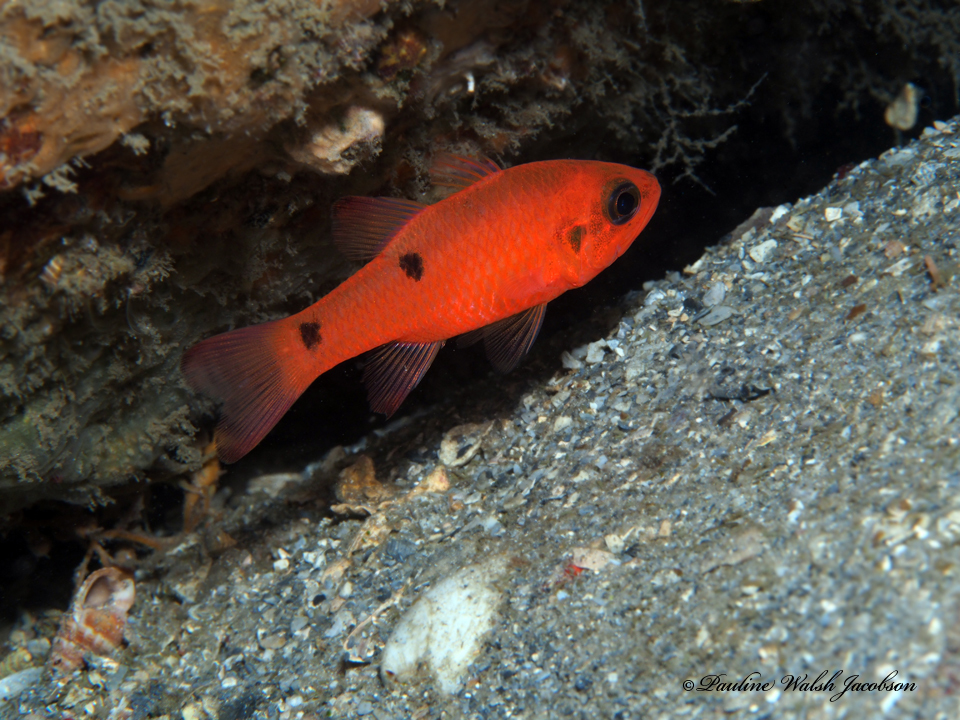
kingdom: Animalia
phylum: Chordata
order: Perciformes
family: Apogonidae
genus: Apogon
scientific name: Apogon pseudomaculatus
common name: Twospot cardinalfish
